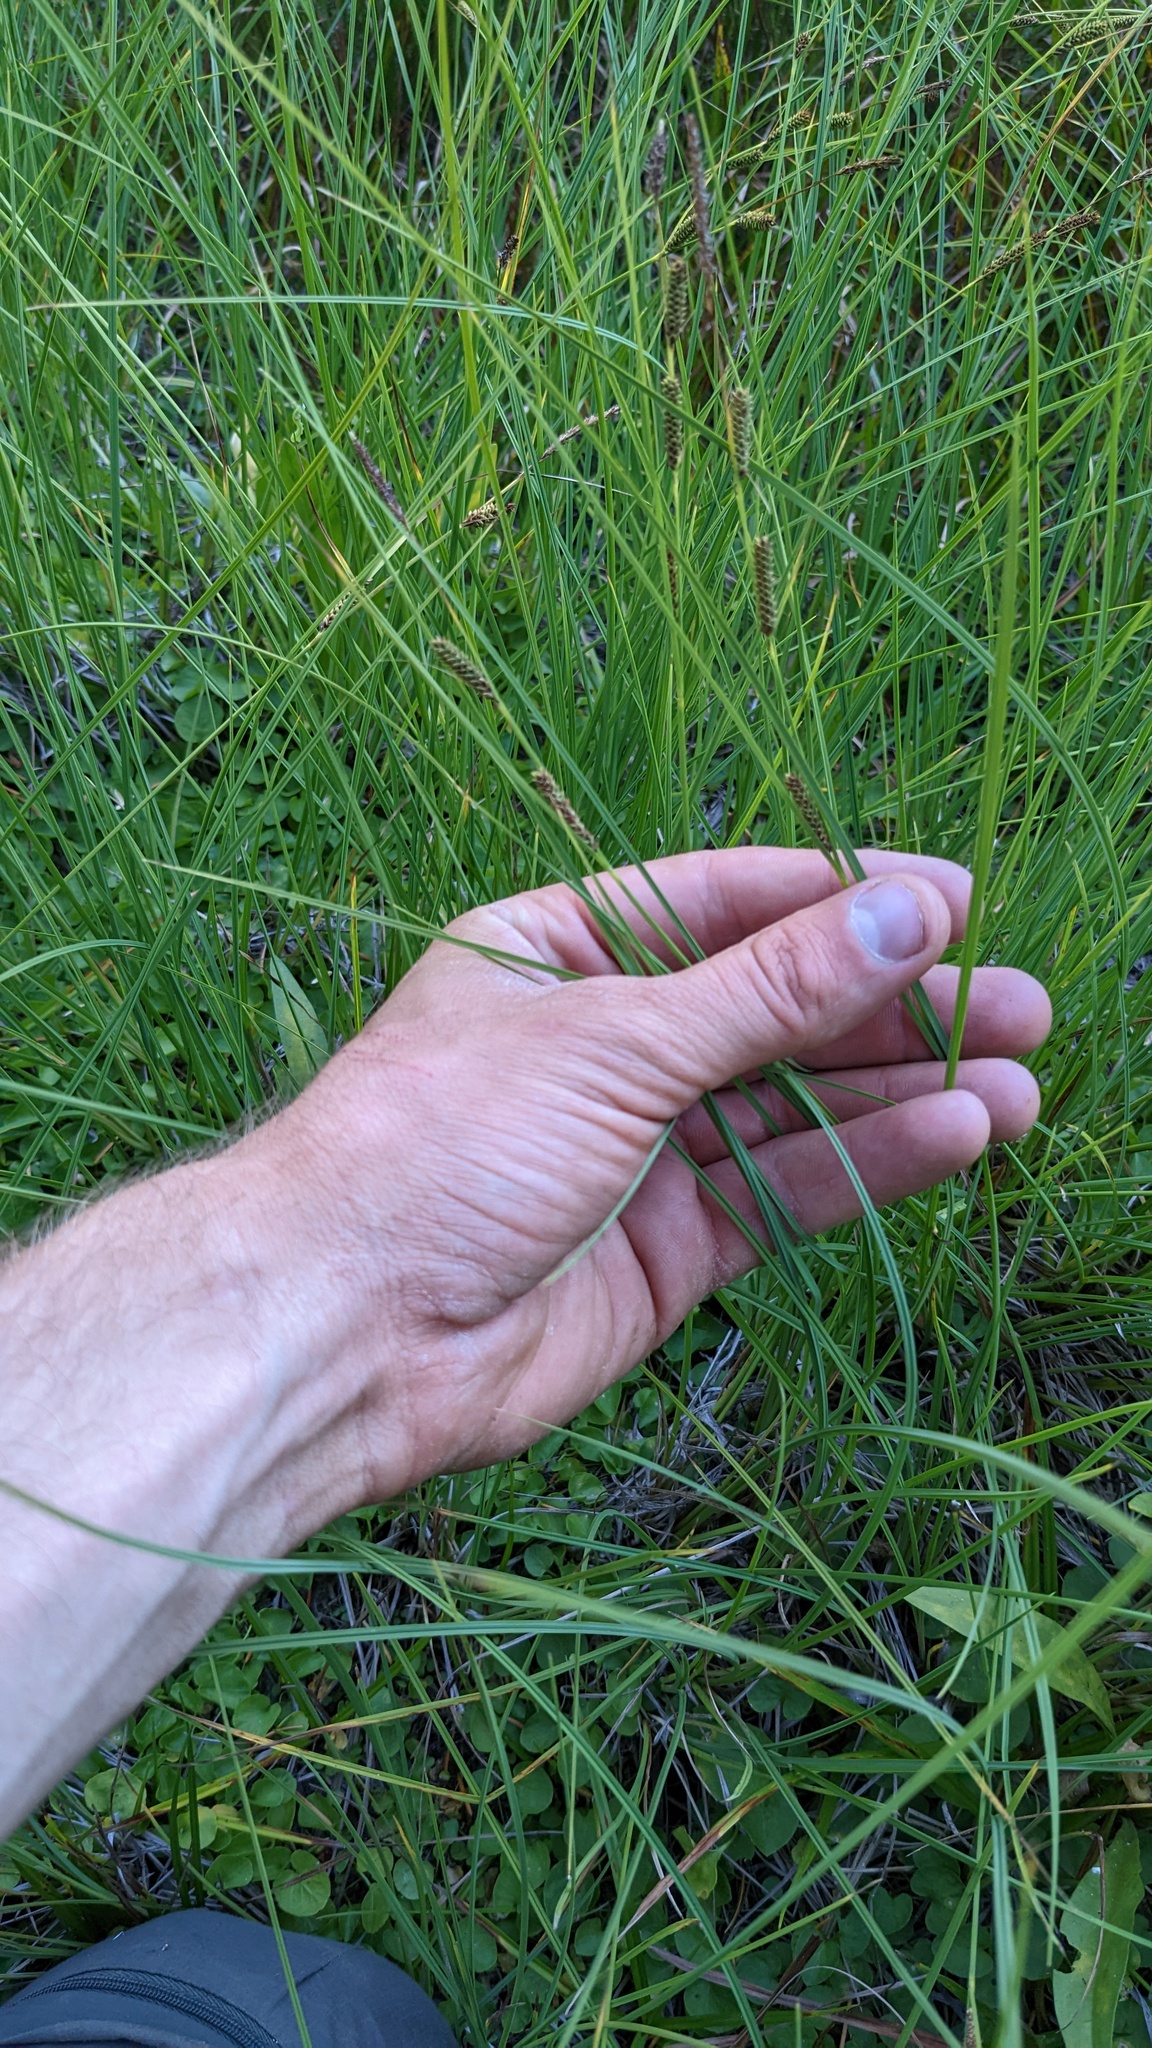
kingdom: Plantae
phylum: Tracheophyta
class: Liliopsida
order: Poales
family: Cyperaceae
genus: Carex
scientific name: Carex kelloggii
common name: Kellogg's sedge
